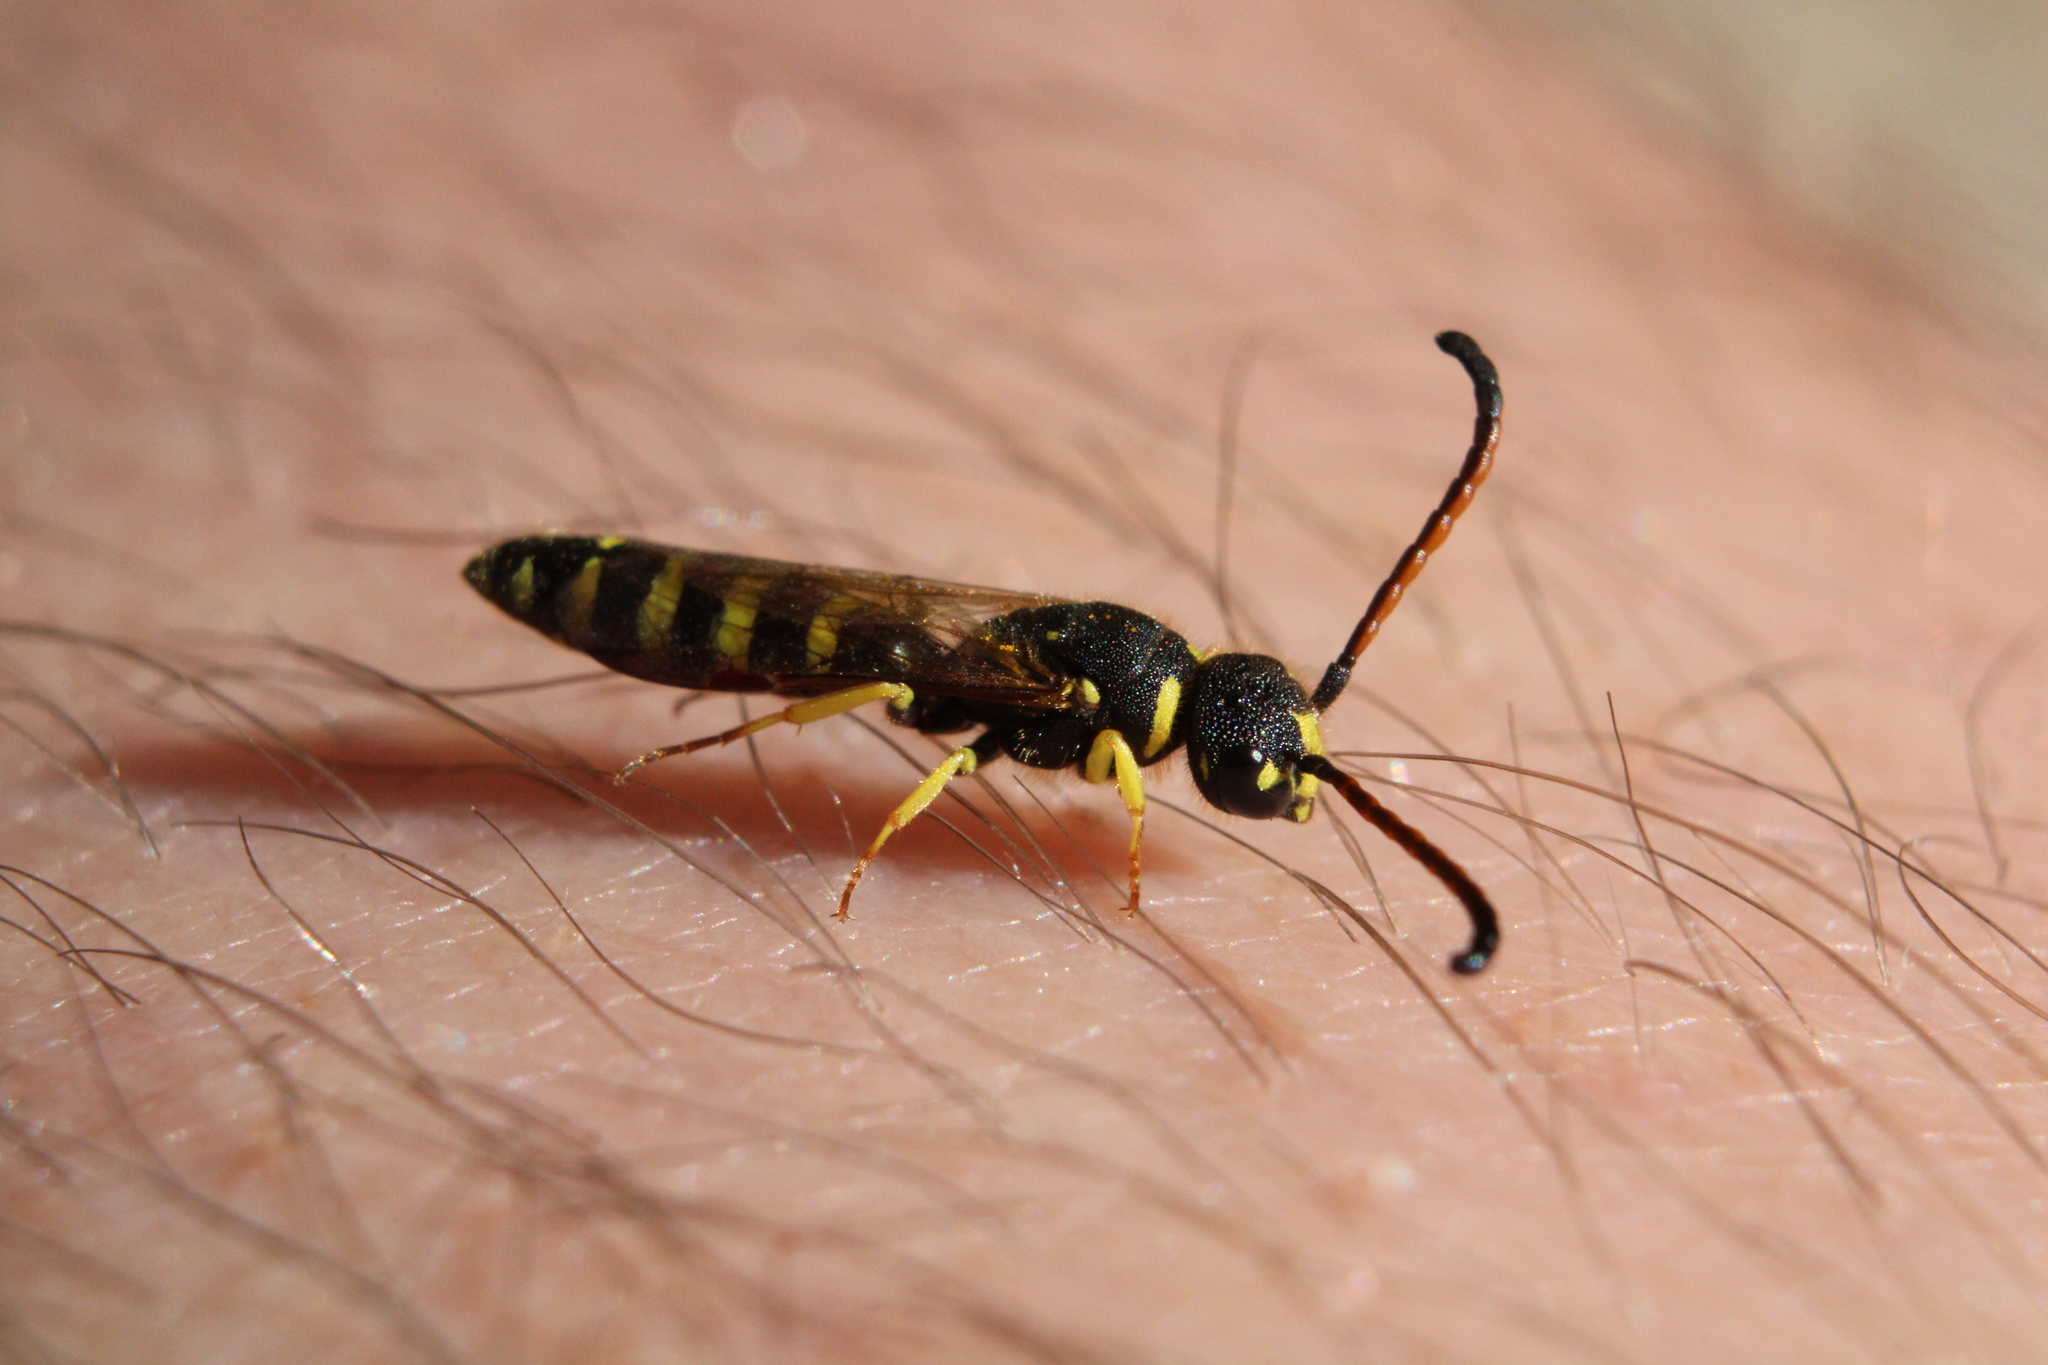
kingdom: Animalia
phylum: Arthropoda
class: Insecta
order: Hymenoptera
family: Sapygidae
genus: Sapyga
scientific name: Sapyga centrata
